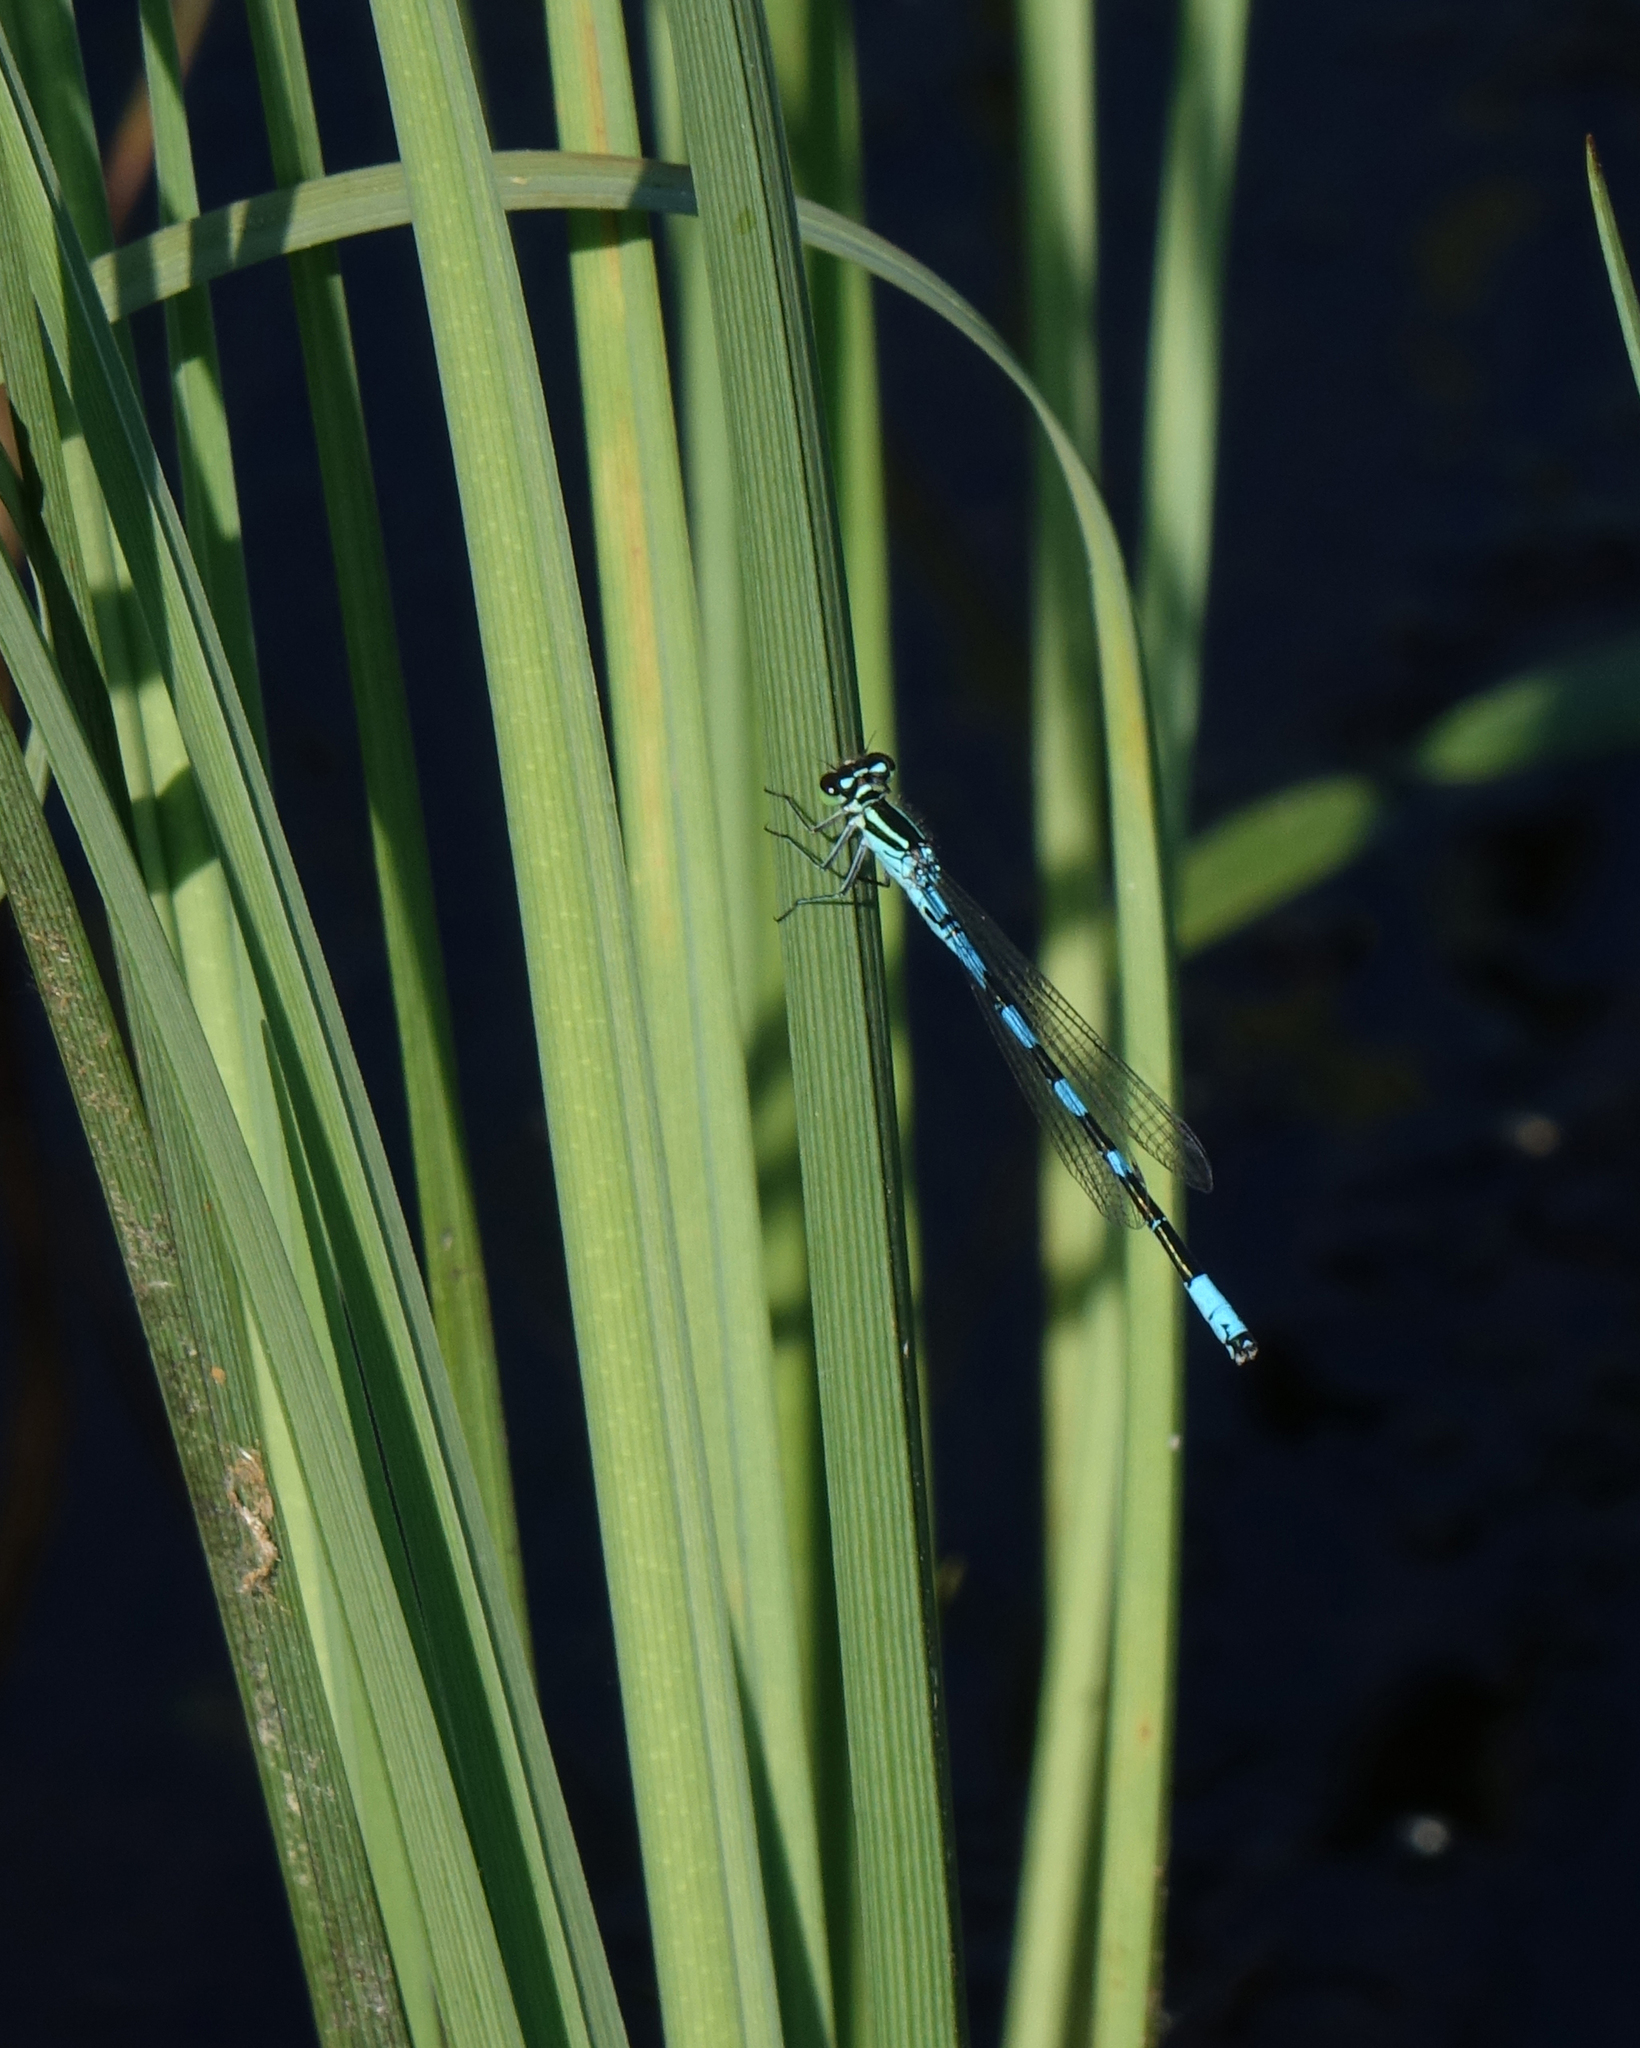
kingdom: Animalia
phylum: Arthropoda
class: Insecta
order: Odonata
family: Coenagrionidae
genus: Coenagrion
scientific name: Coenagrion hastulatum
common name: Spearhead bluet
